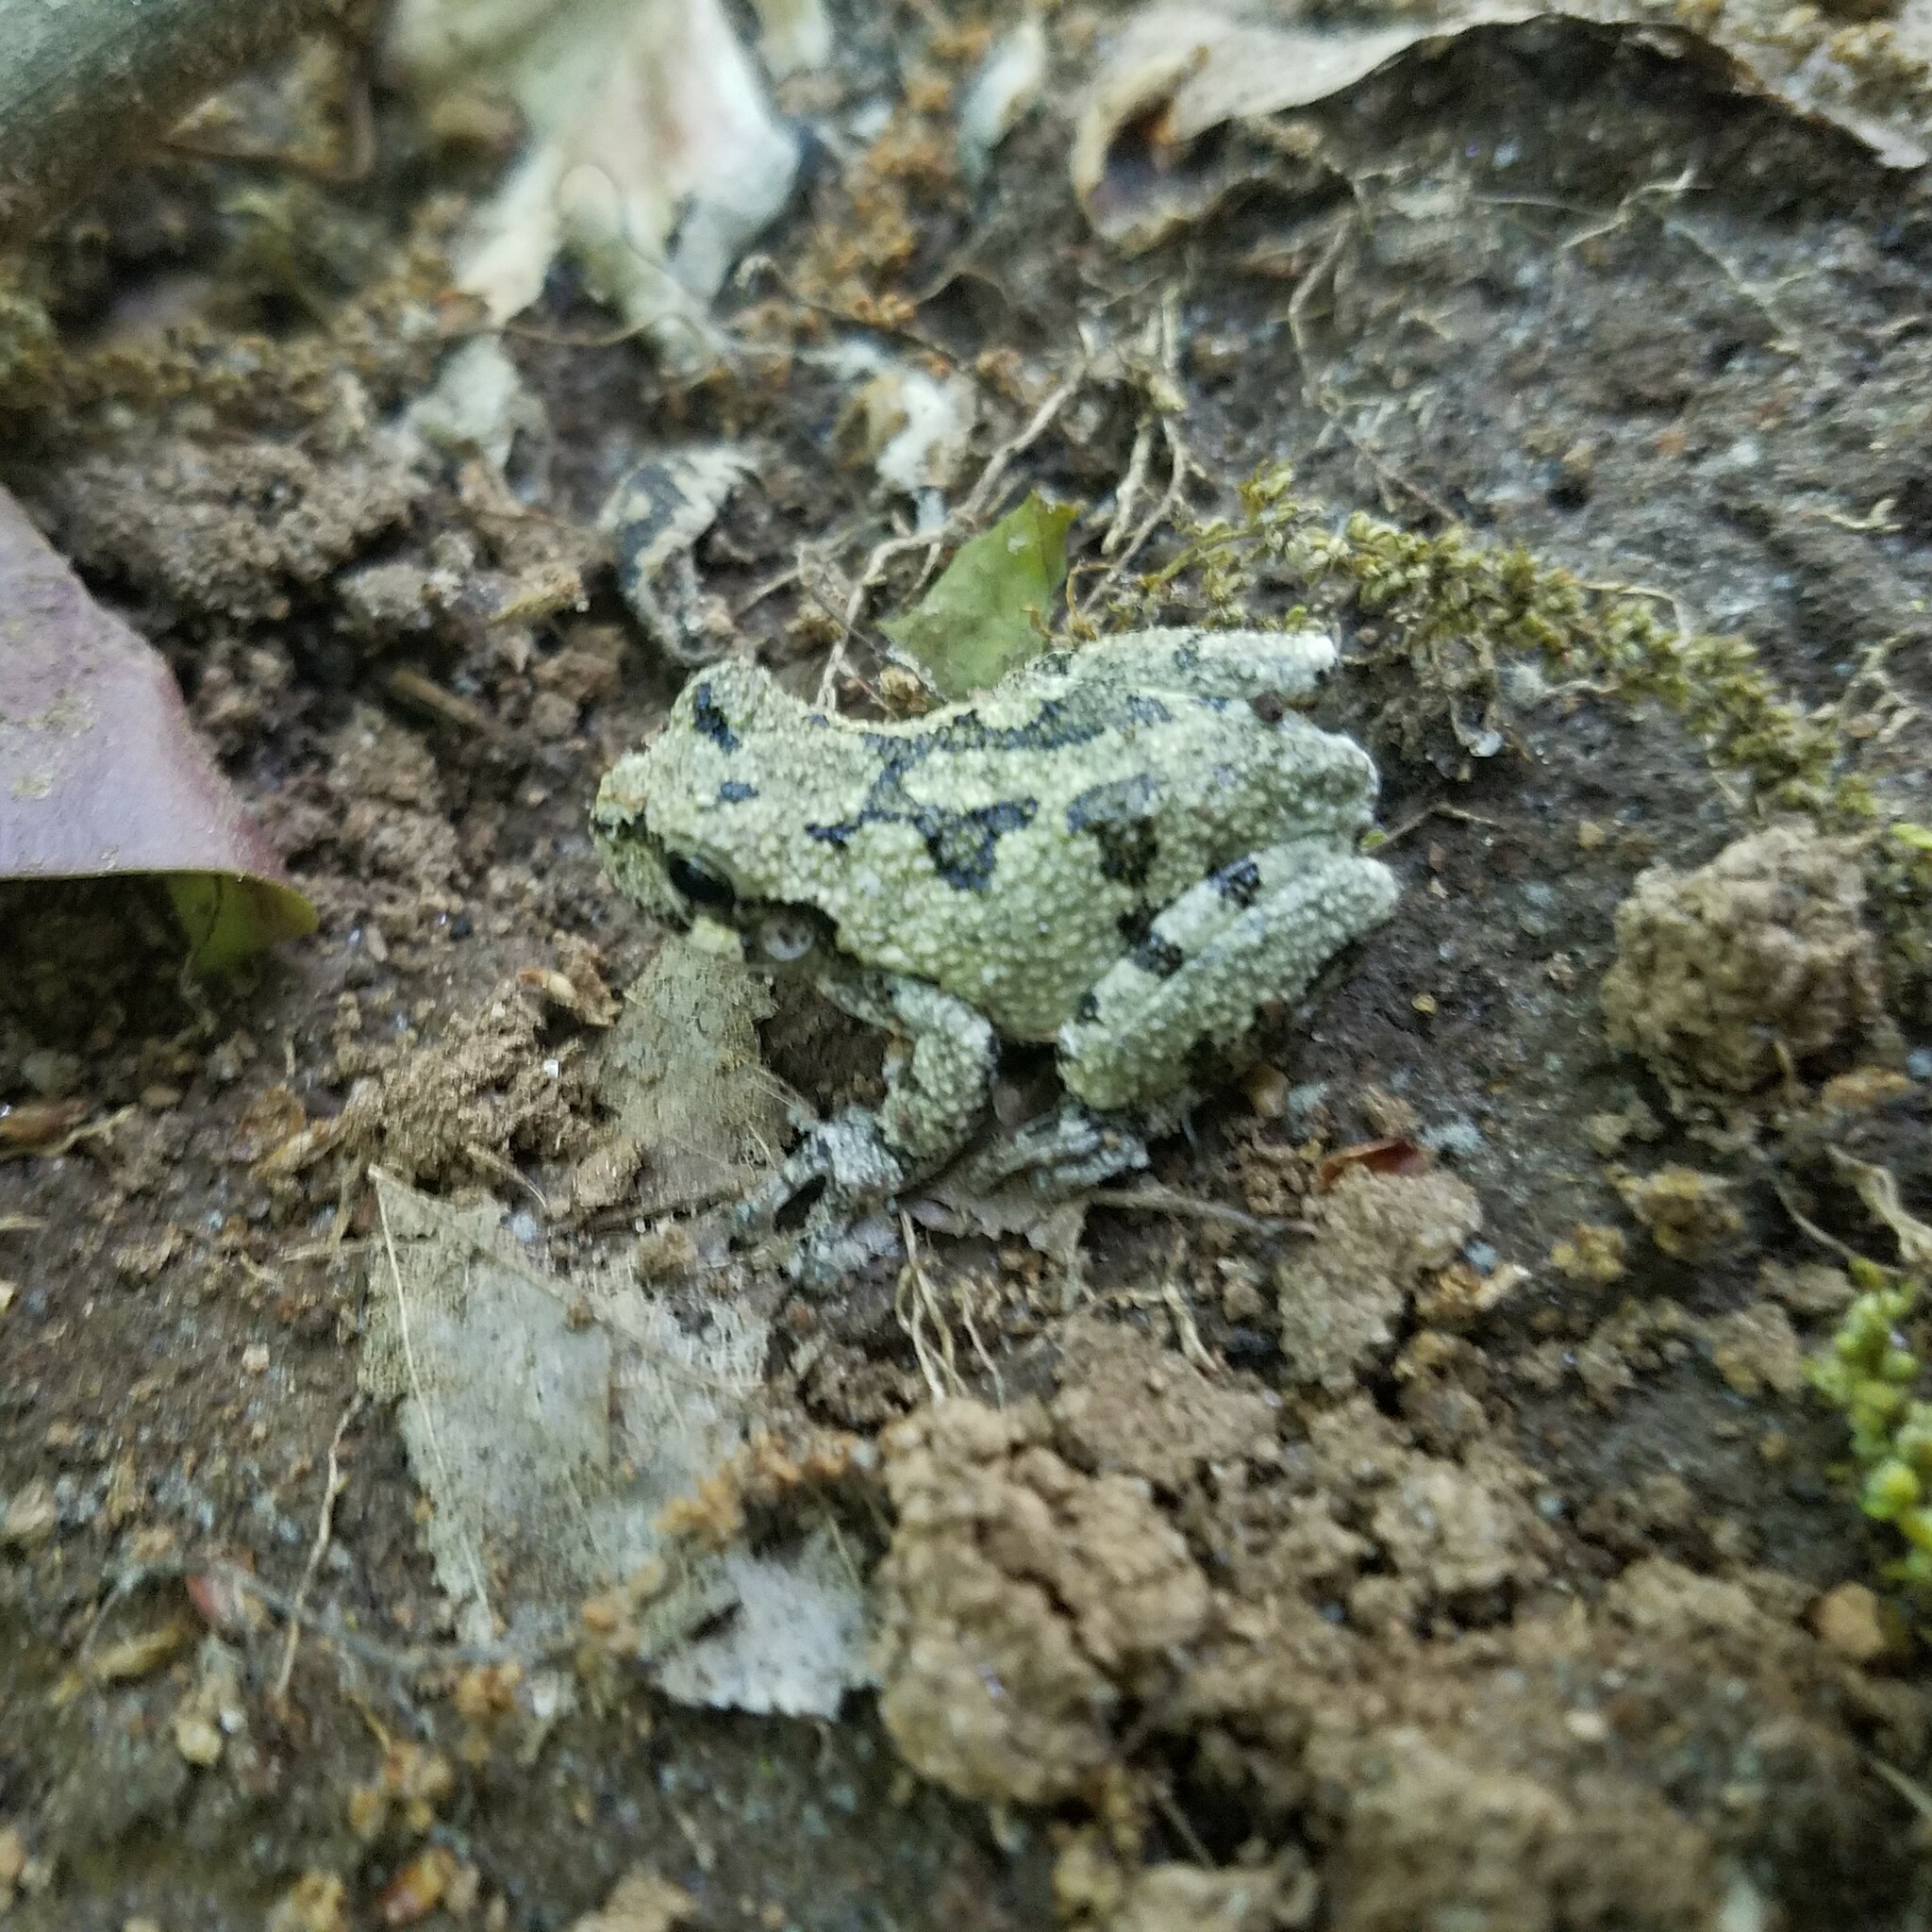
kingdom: Animalia
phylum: Chordata
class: Amphibia
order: Anura
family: Hylidae
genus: Dryophytes
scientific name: Dryophytes chrysoscelis
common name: Cope's gray treefrog
